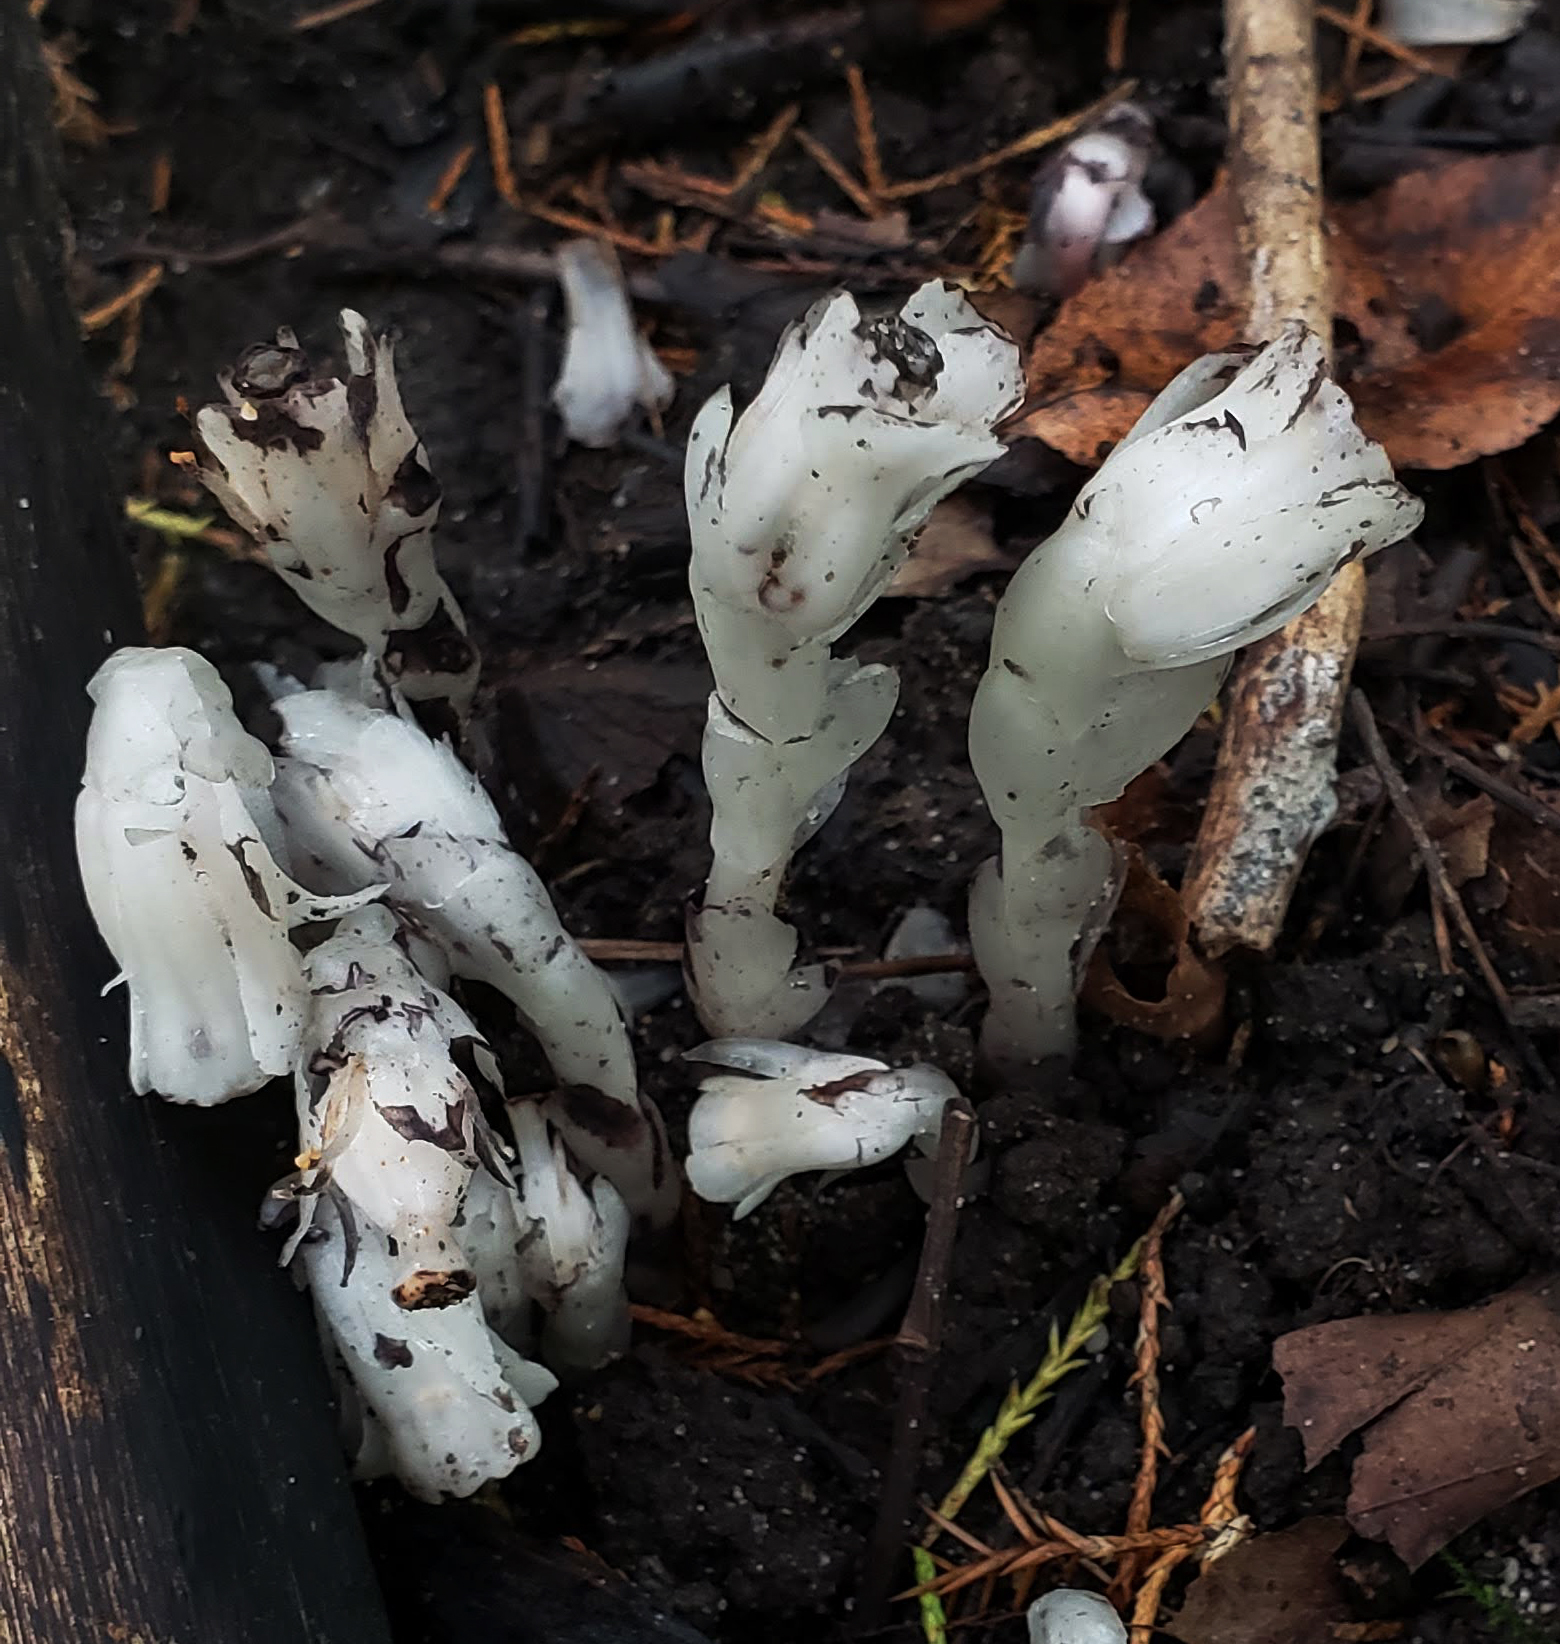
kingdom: Plantae
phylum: Tracheophyta
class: Magnoliopsida
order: Ericales
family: Ericaceae
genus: Monotropa
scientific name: Monotropa uniflora
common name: Convulsion root
